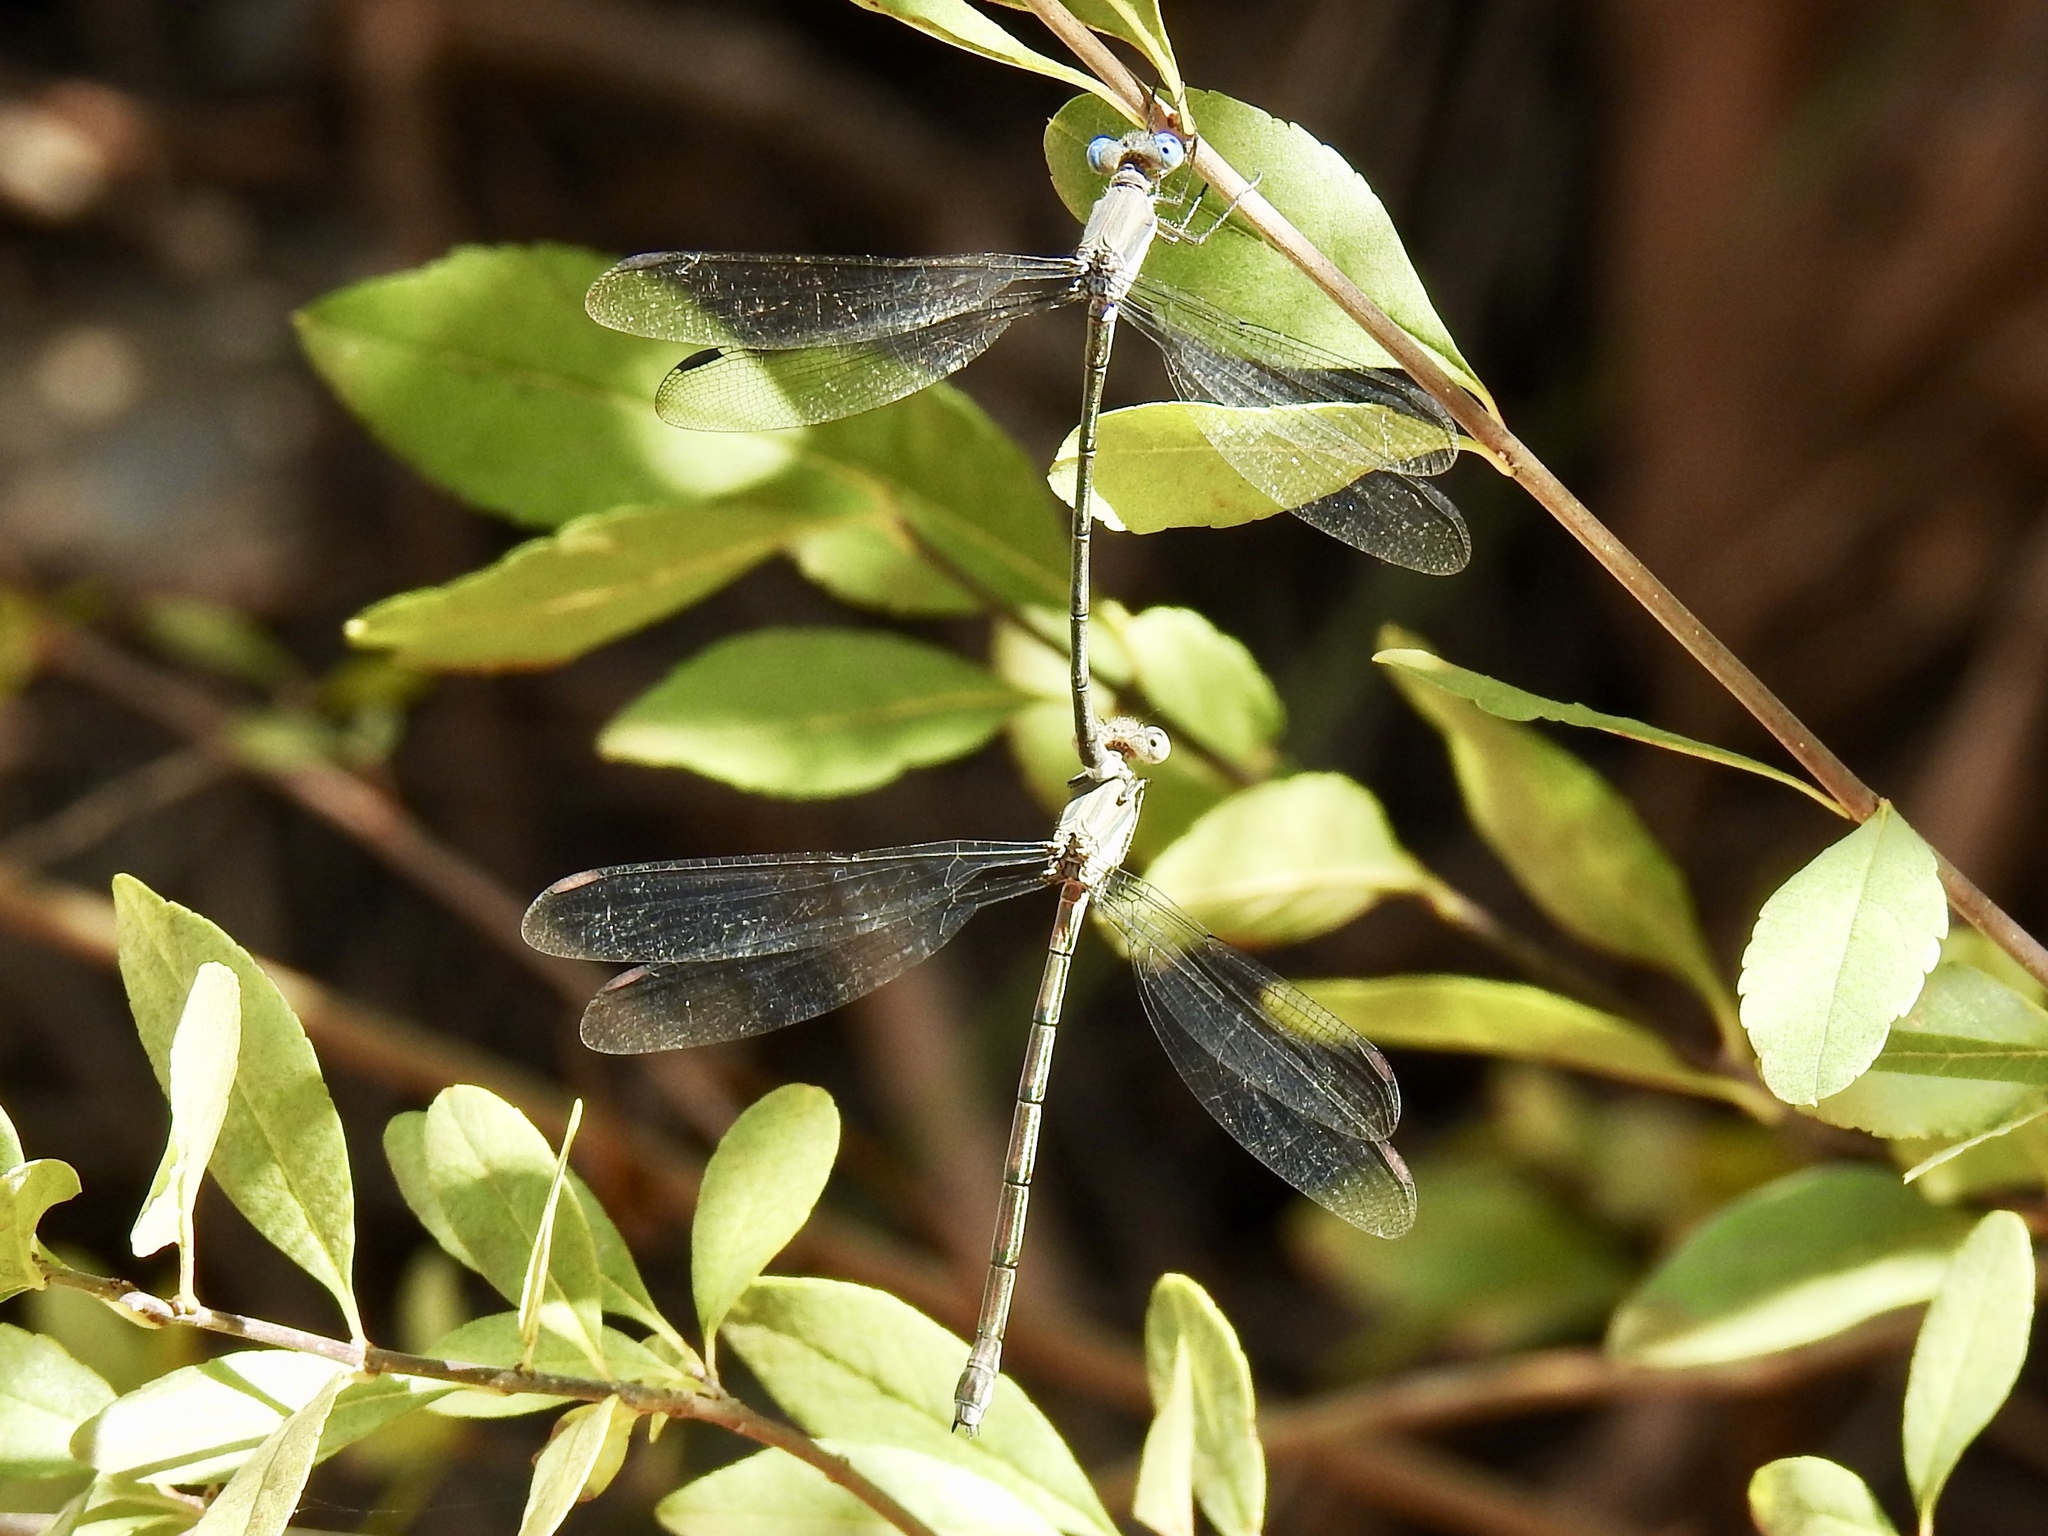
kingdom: Animalia
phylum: Arthropoda
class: Insecta
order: Odonata
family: Lestidae
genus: Archilestes
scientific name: Archilestes grandis
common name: Great spreadwing
